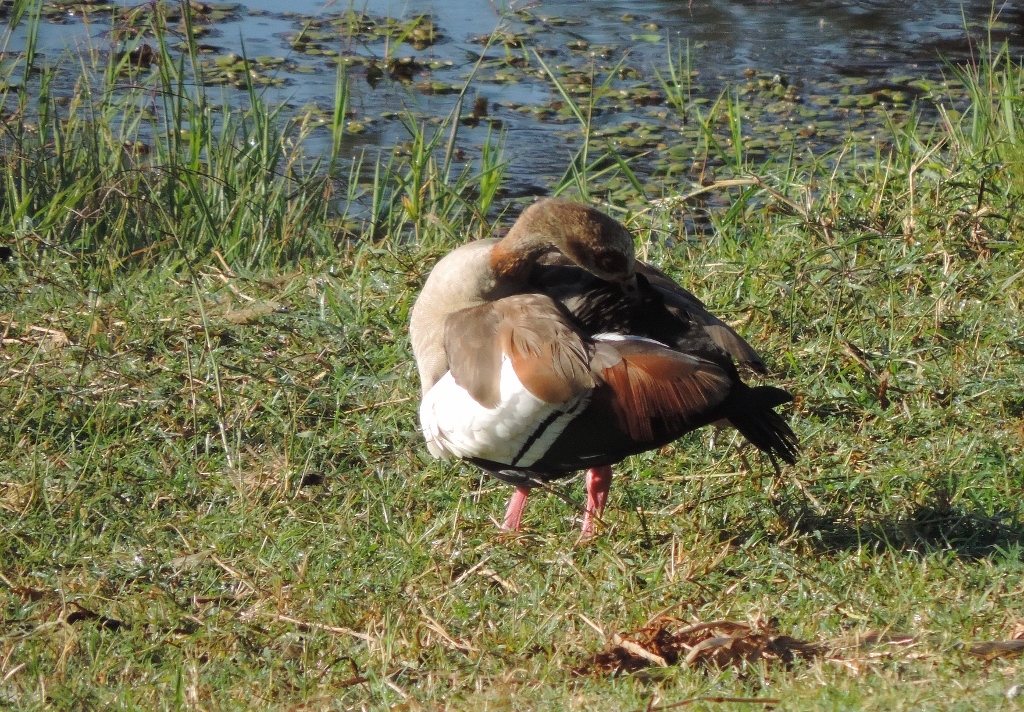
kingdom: Animalia
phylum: Chordata
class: Aves
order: Anseriformes
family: Anatidae
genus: Alopochen
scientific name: Alopochen aegyptiaca
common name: Egyptian goose
